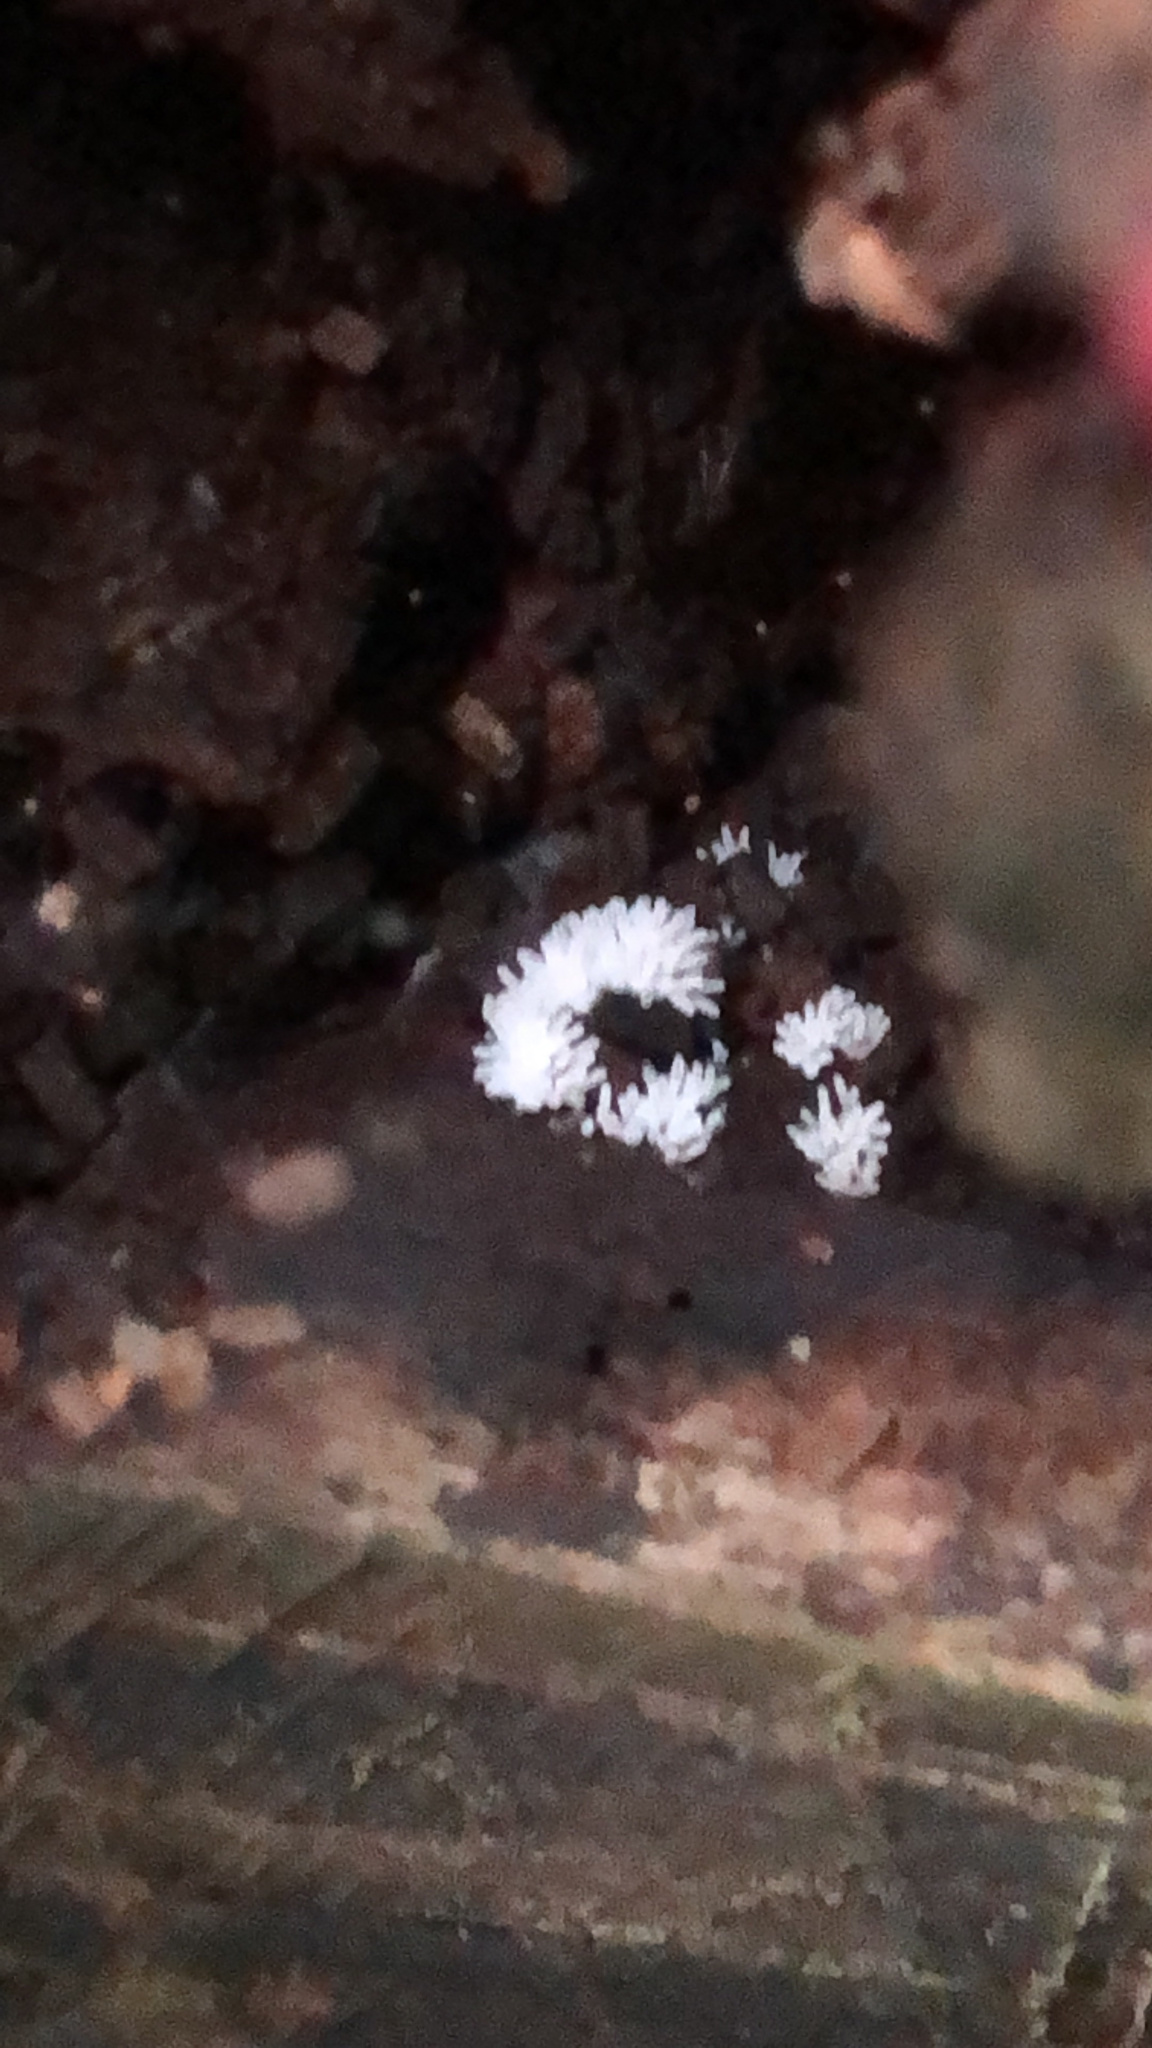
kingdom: Protozoa
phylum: Mycetozoa
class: Protosteliomycetes
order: Ceratiomyxales
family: Ceratiomyxaceae
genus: Ceratiomyxa
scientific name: Ceratiomyxa fruticulosa
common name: Honeycomb coral slime mold
